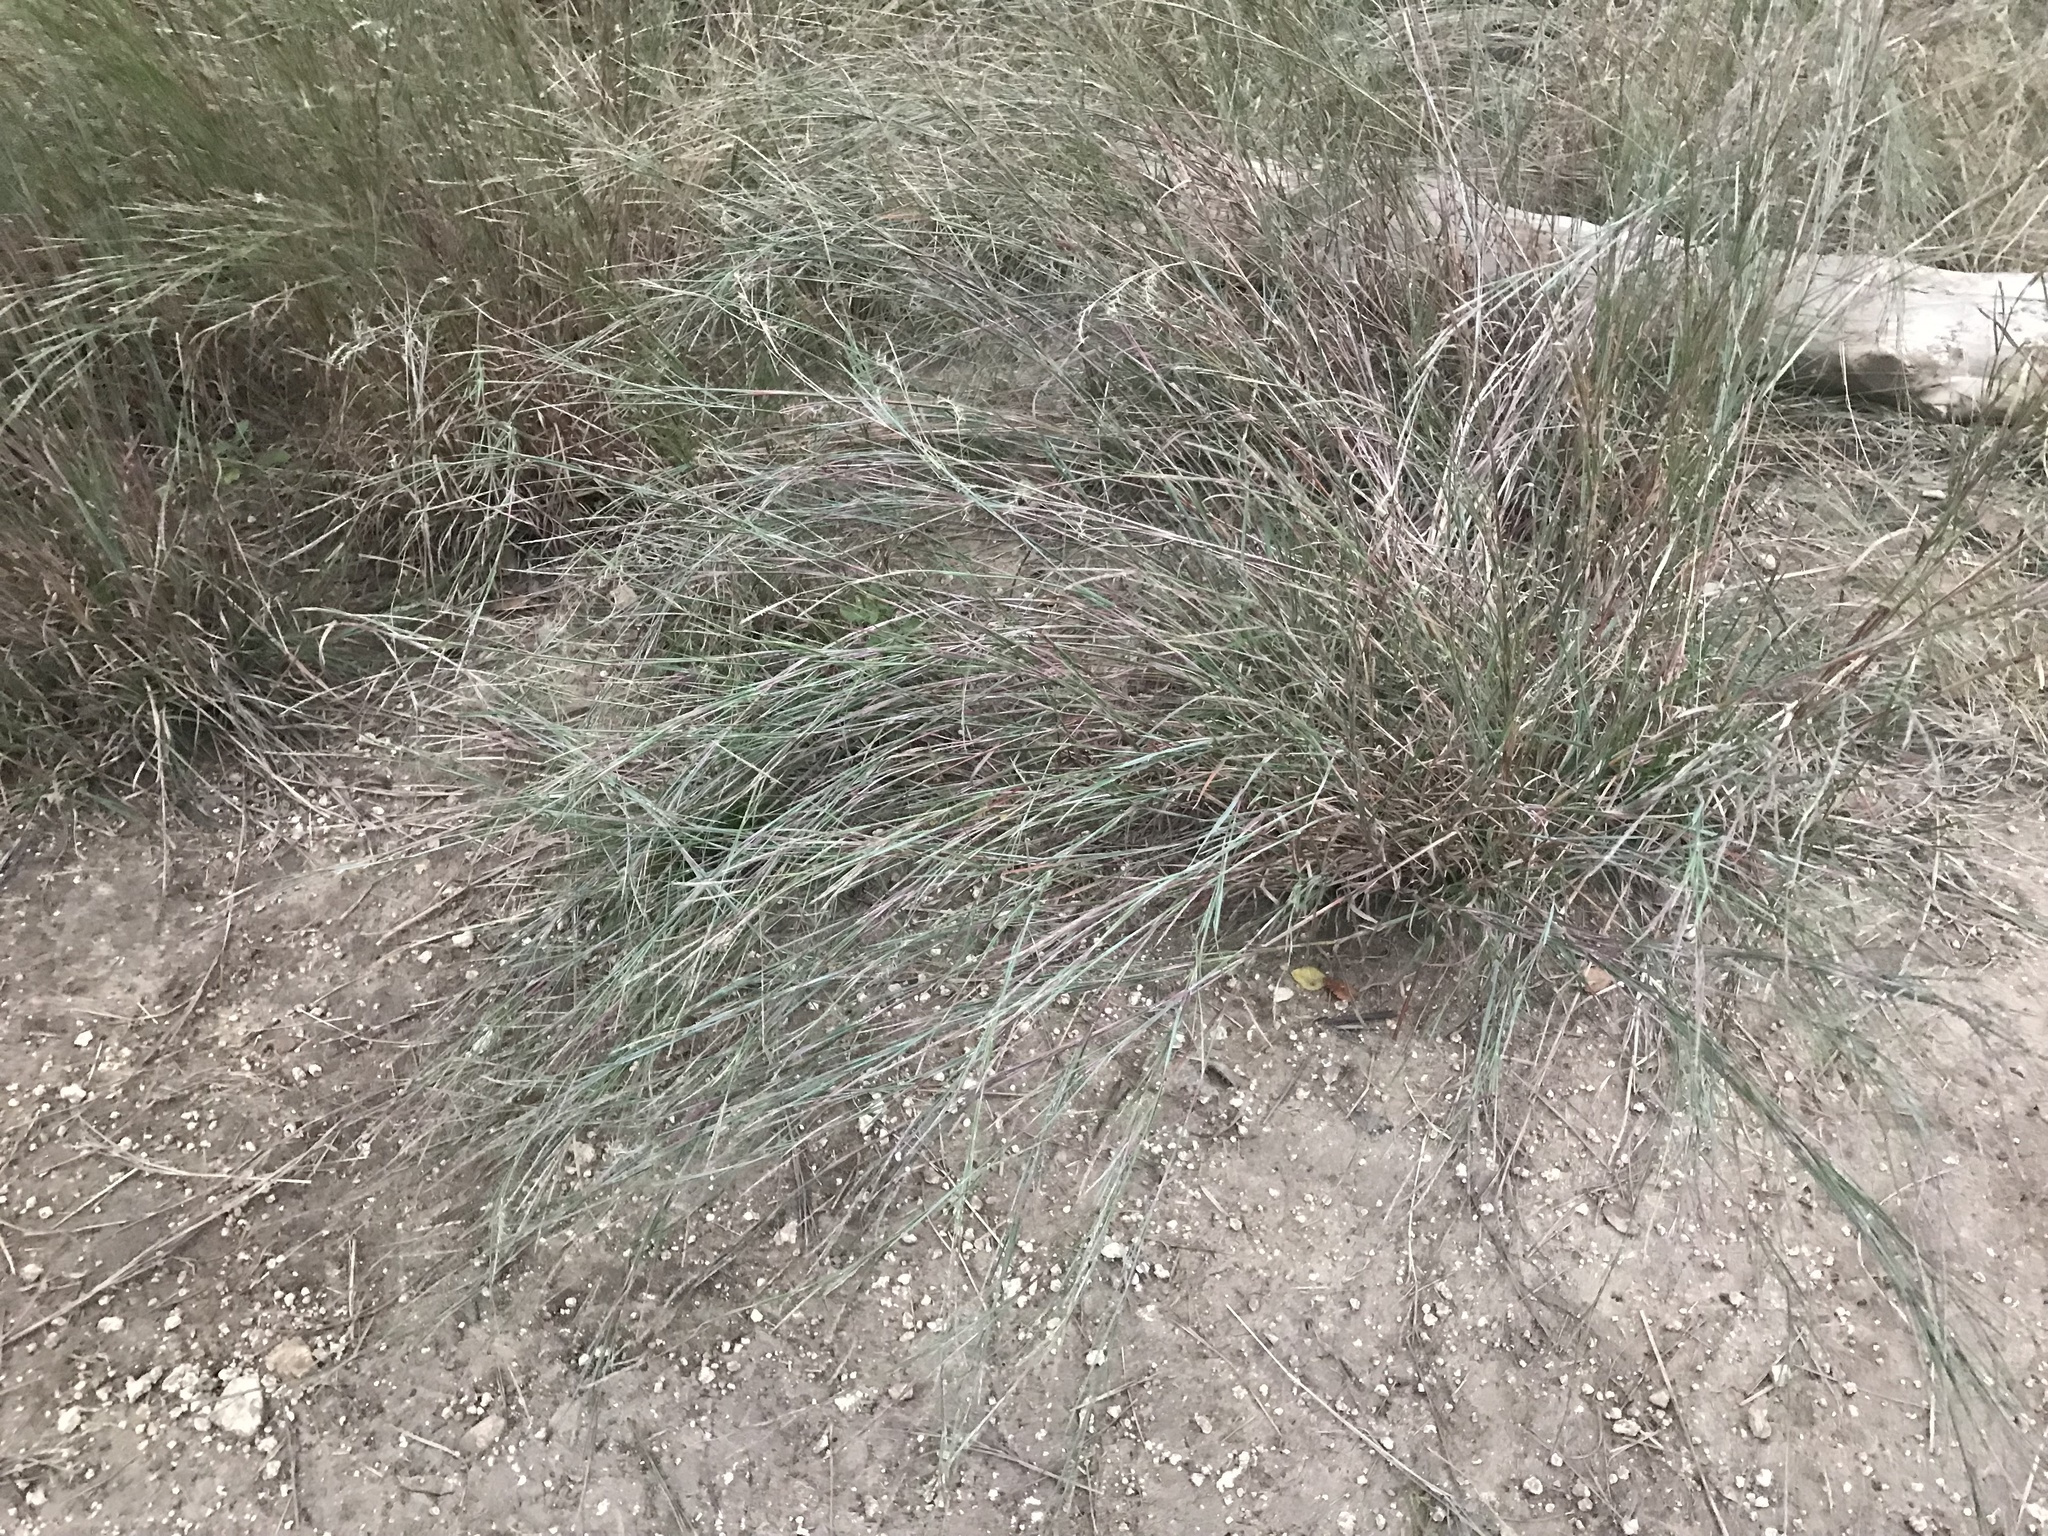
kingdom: Plantae
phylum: Tracheophyta
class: Liliopsida
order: Poales
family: Poaceae
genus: Schizachyrium
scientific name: Schizachyrium scoparium
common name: Little bluestem
